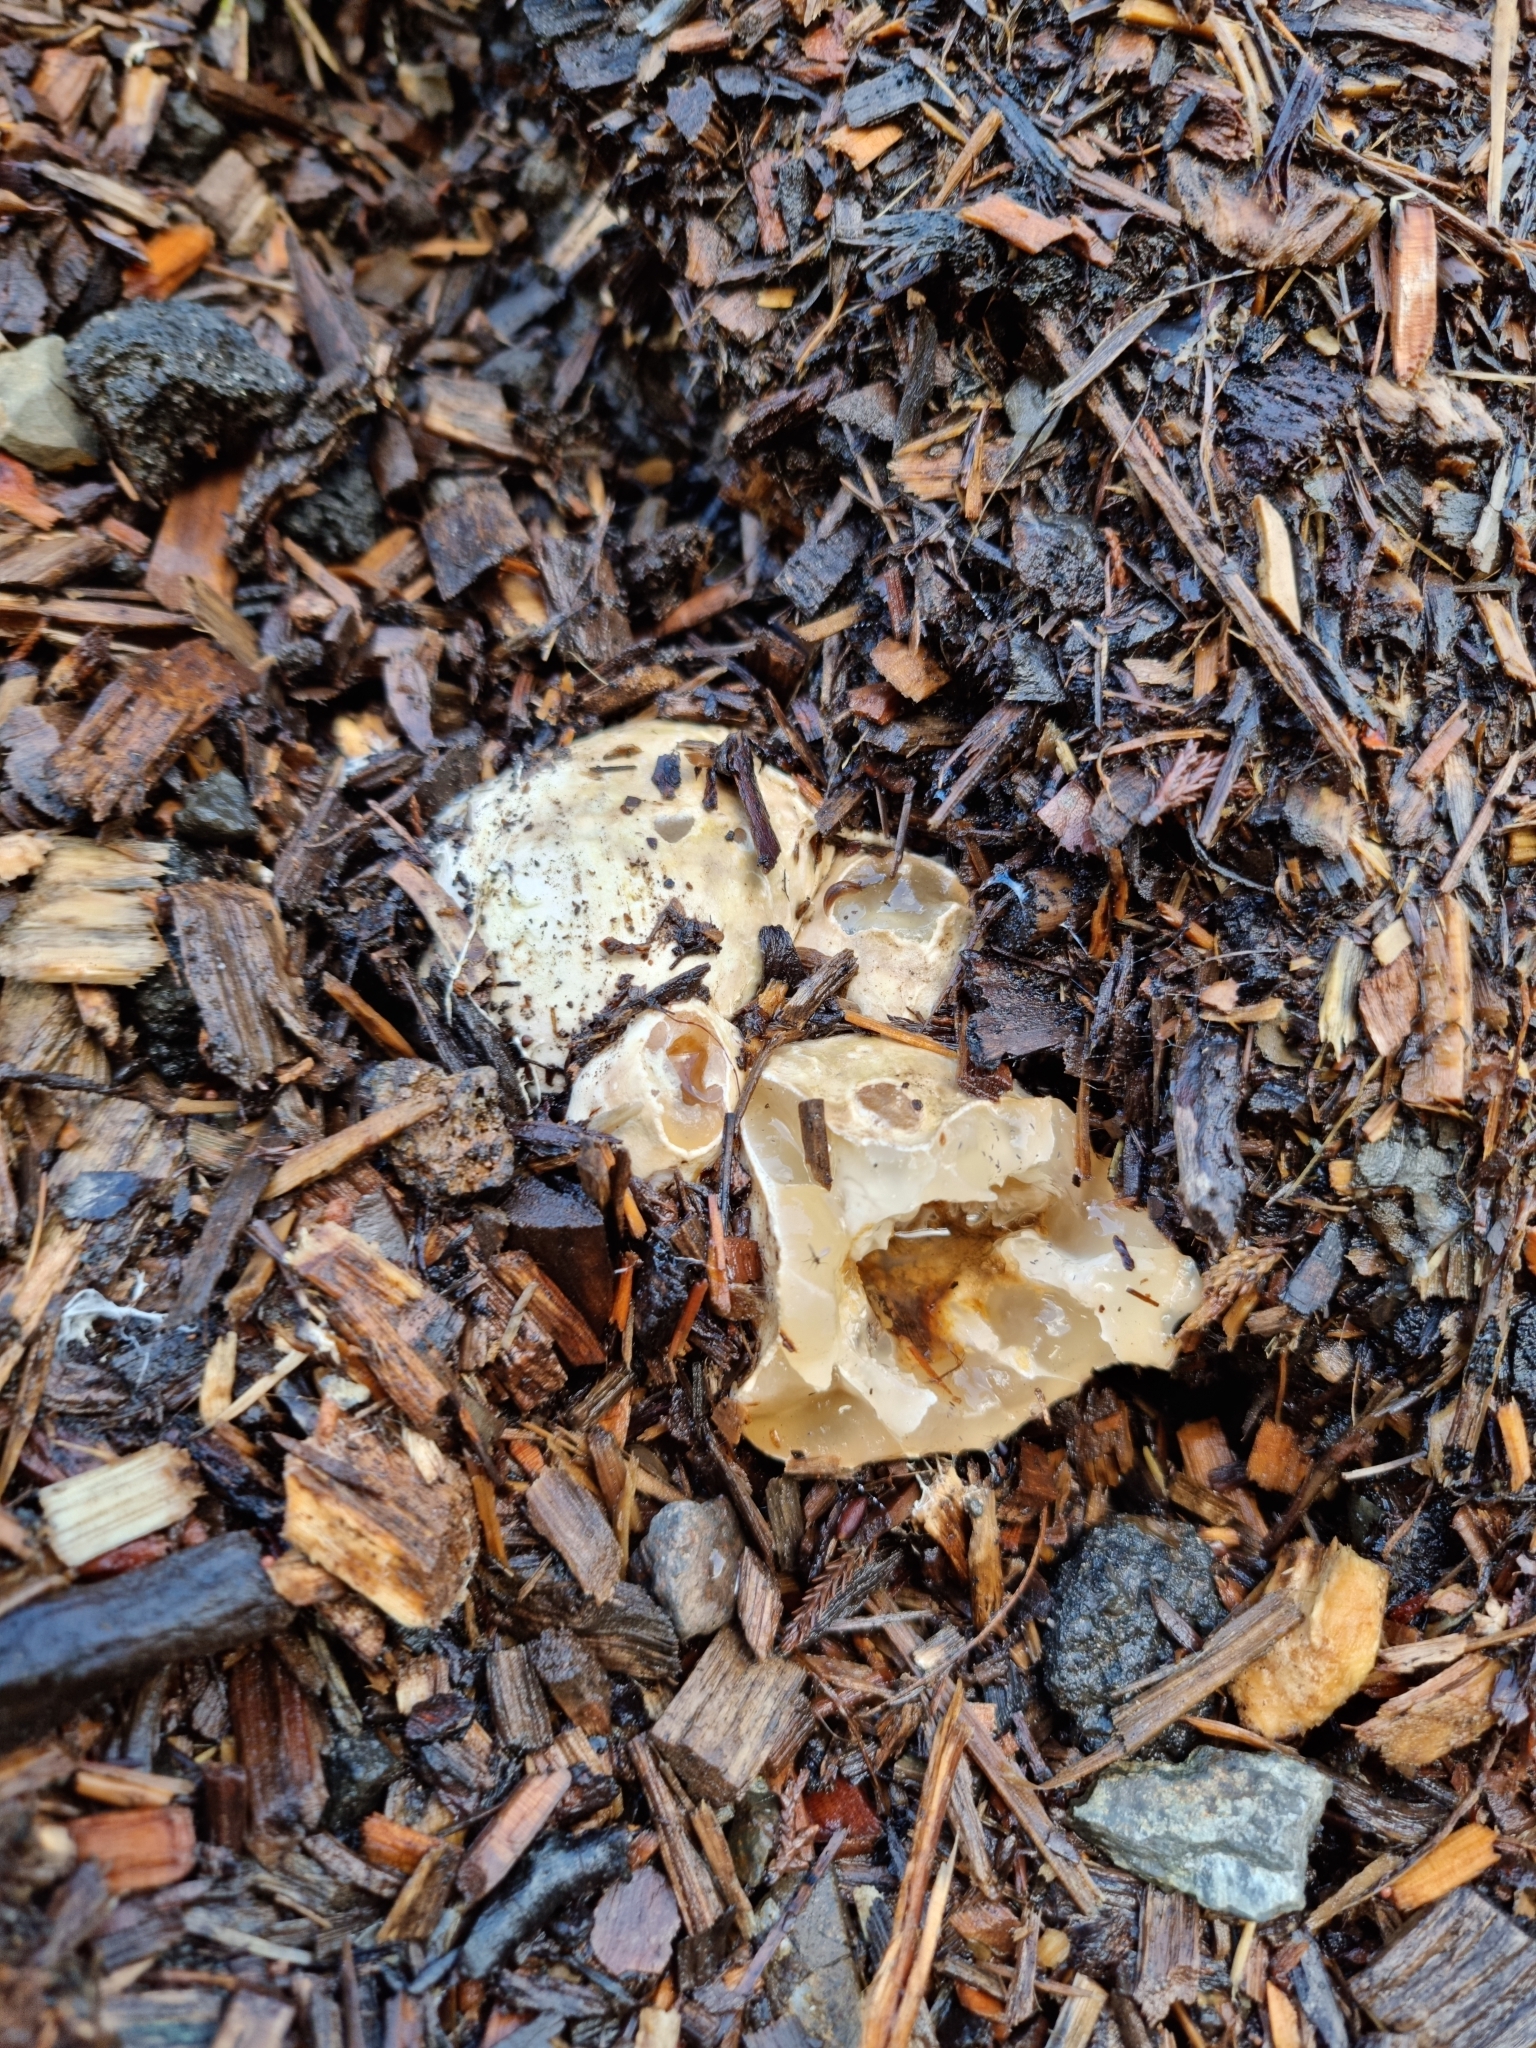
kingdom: Fungi
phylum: Basidiomycota
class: Agaricomycetes
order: Phallales
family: Phallaceae
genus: Ileodictyon
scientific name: Ileodictyon cibarium
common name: Basket fungus
